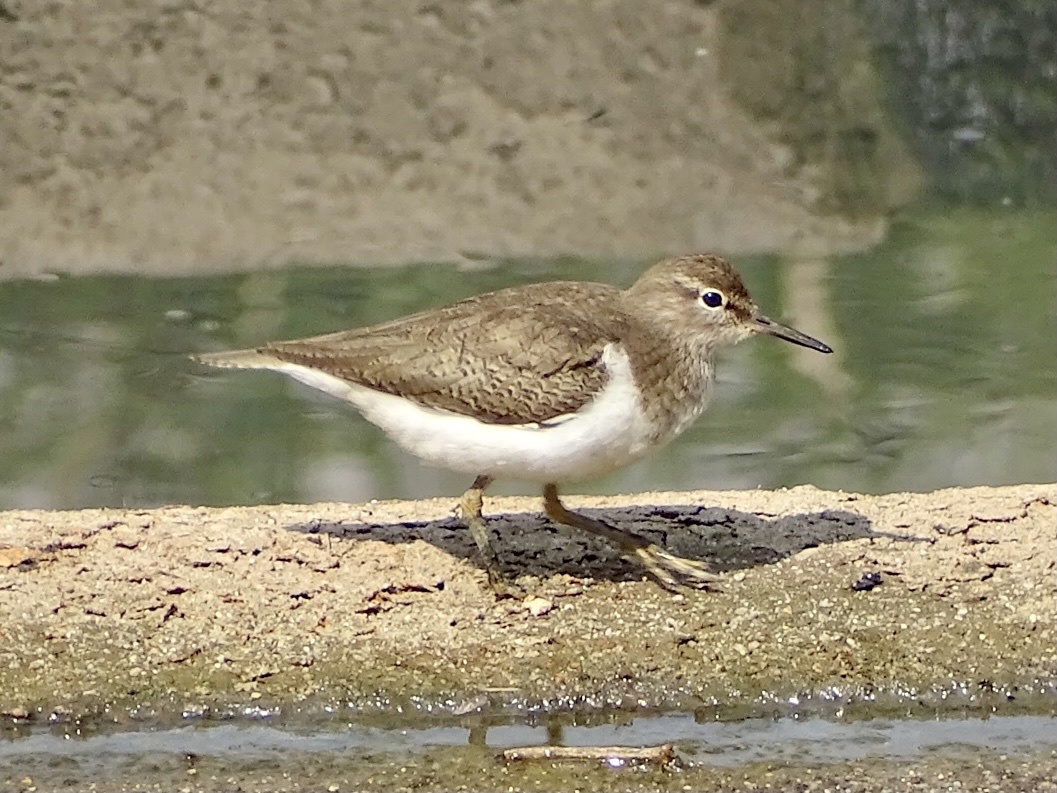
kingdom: Animalia
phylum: Chordata
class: Aves
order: Charadriiformes
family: Scolopacidae
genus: Actitis
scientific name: Actitis hypoleucos
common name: Common sandpiper
